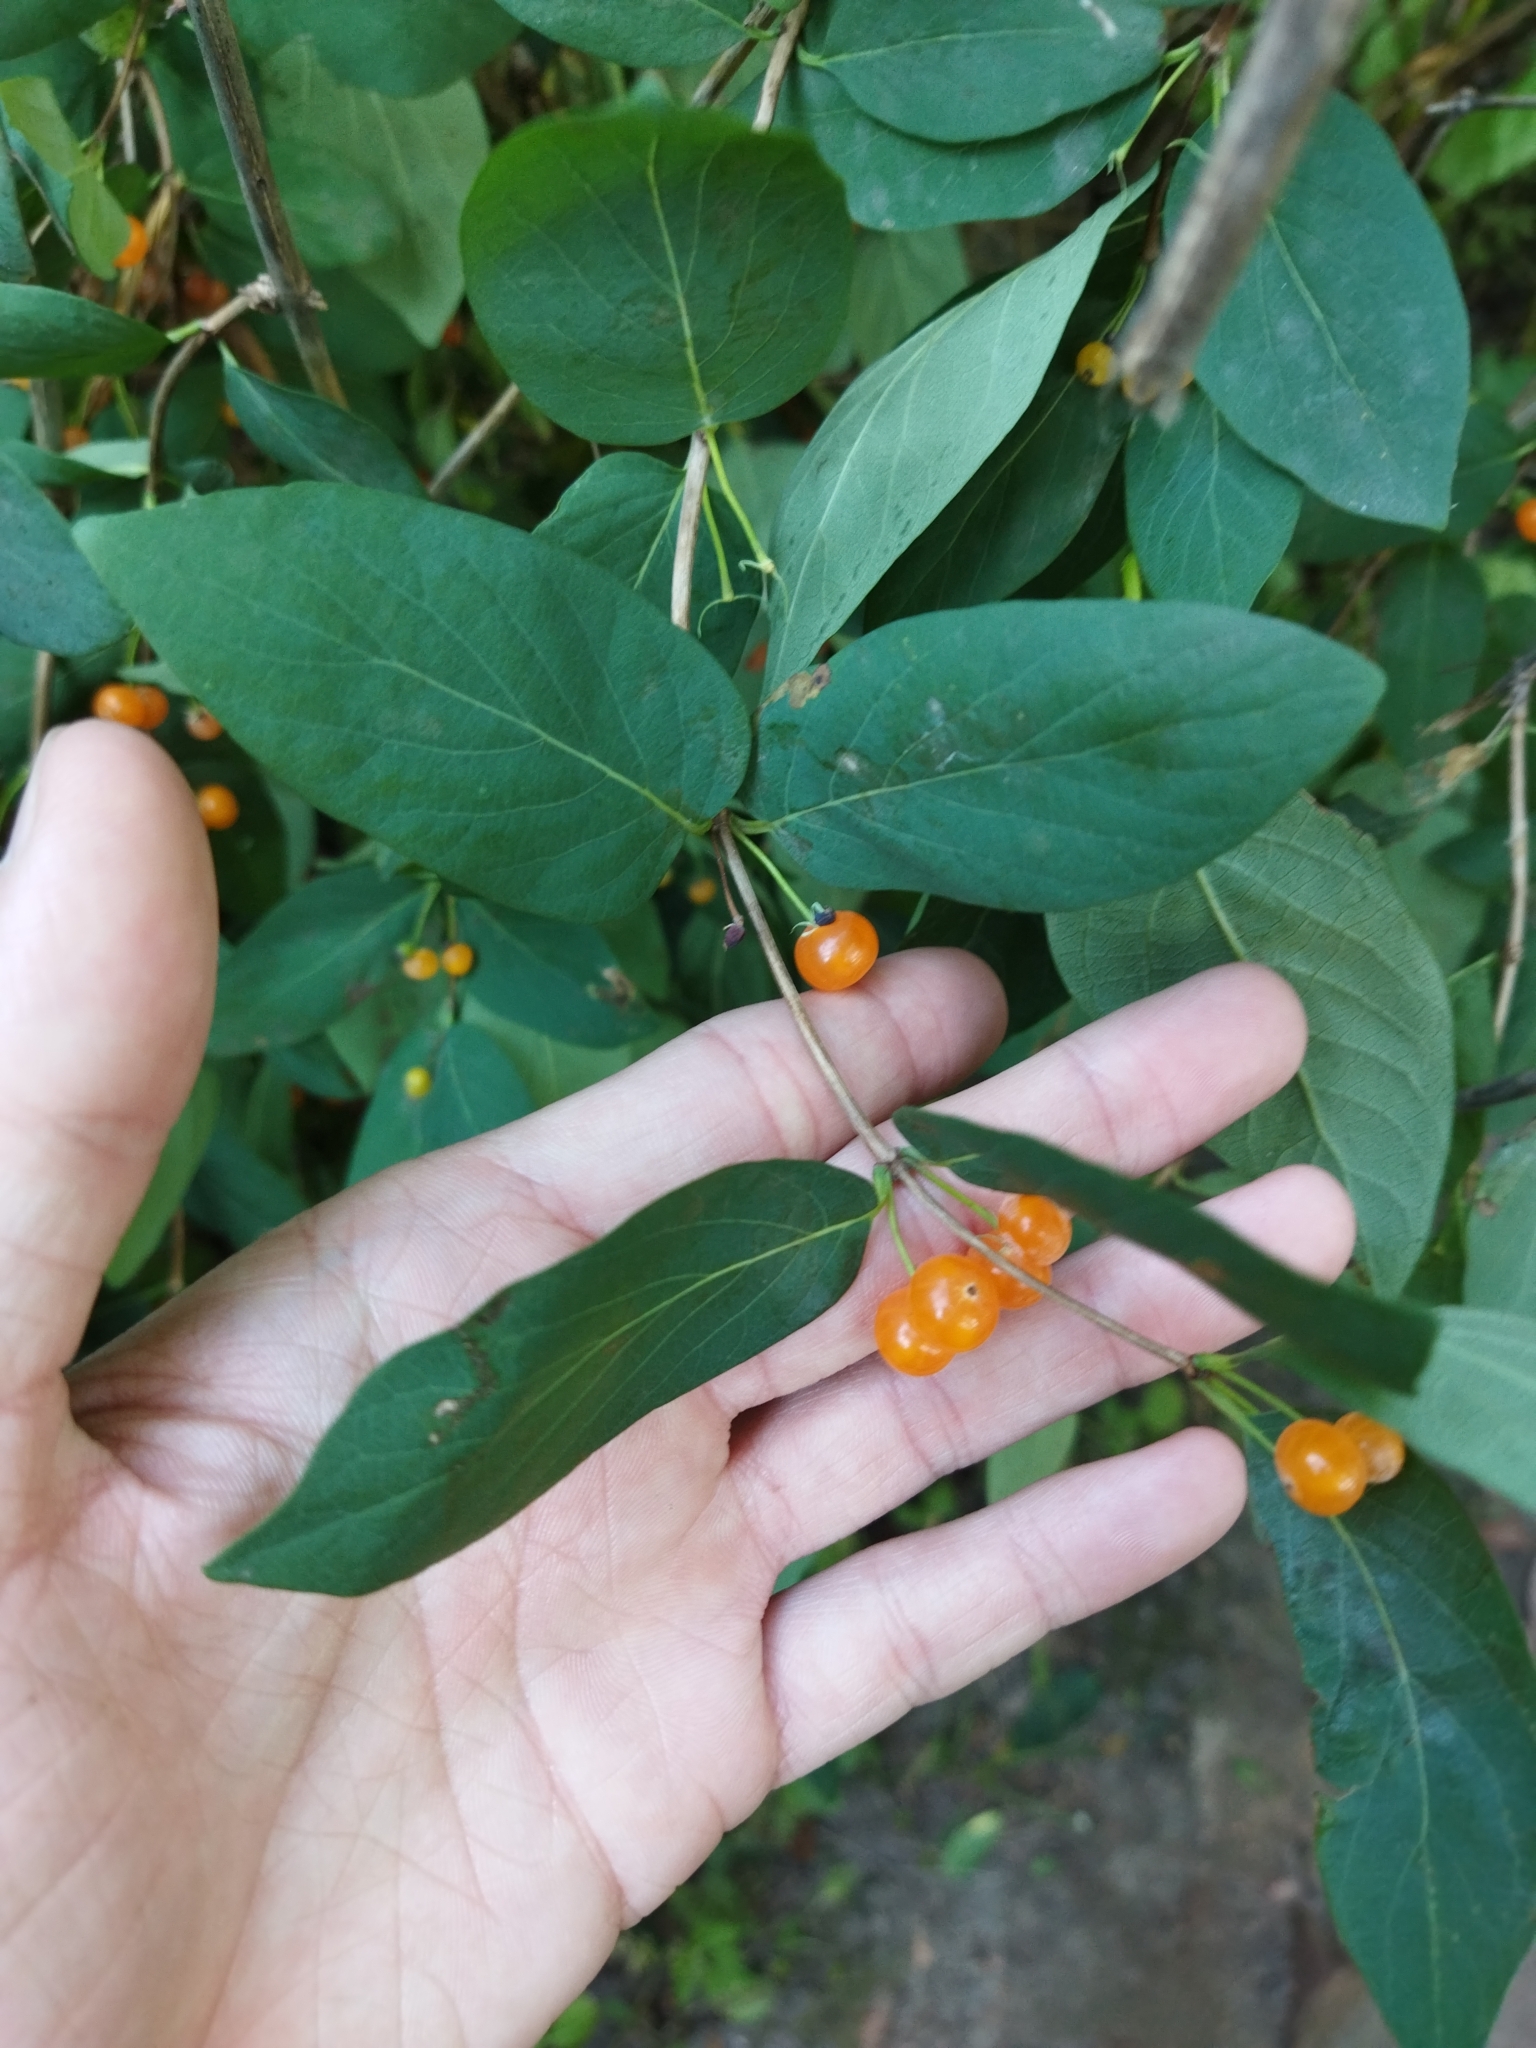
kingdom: Plantae
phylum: Tracheophyta
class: Magnoliopsida
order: Dipsacales
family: Caprifoliaceae
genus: Lonicera
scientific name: Lonicera tatarica
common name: Tatarian honeysuckle
